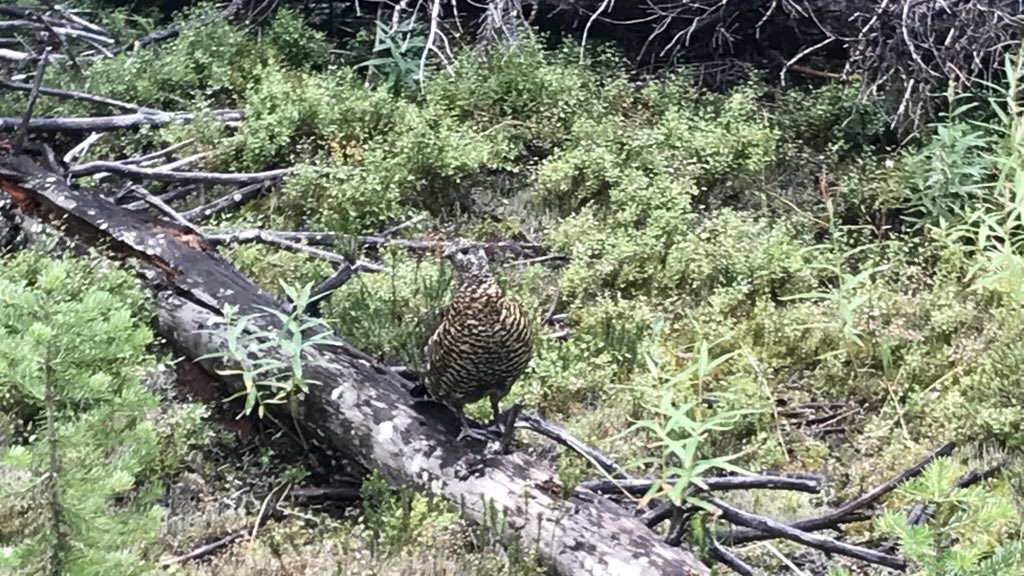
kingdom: Animalia
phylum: Chordata
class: Aves
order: Galliformes
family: Phasianidae
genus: Canachites
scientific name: Canachites canadensis
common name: Spruce grouse
